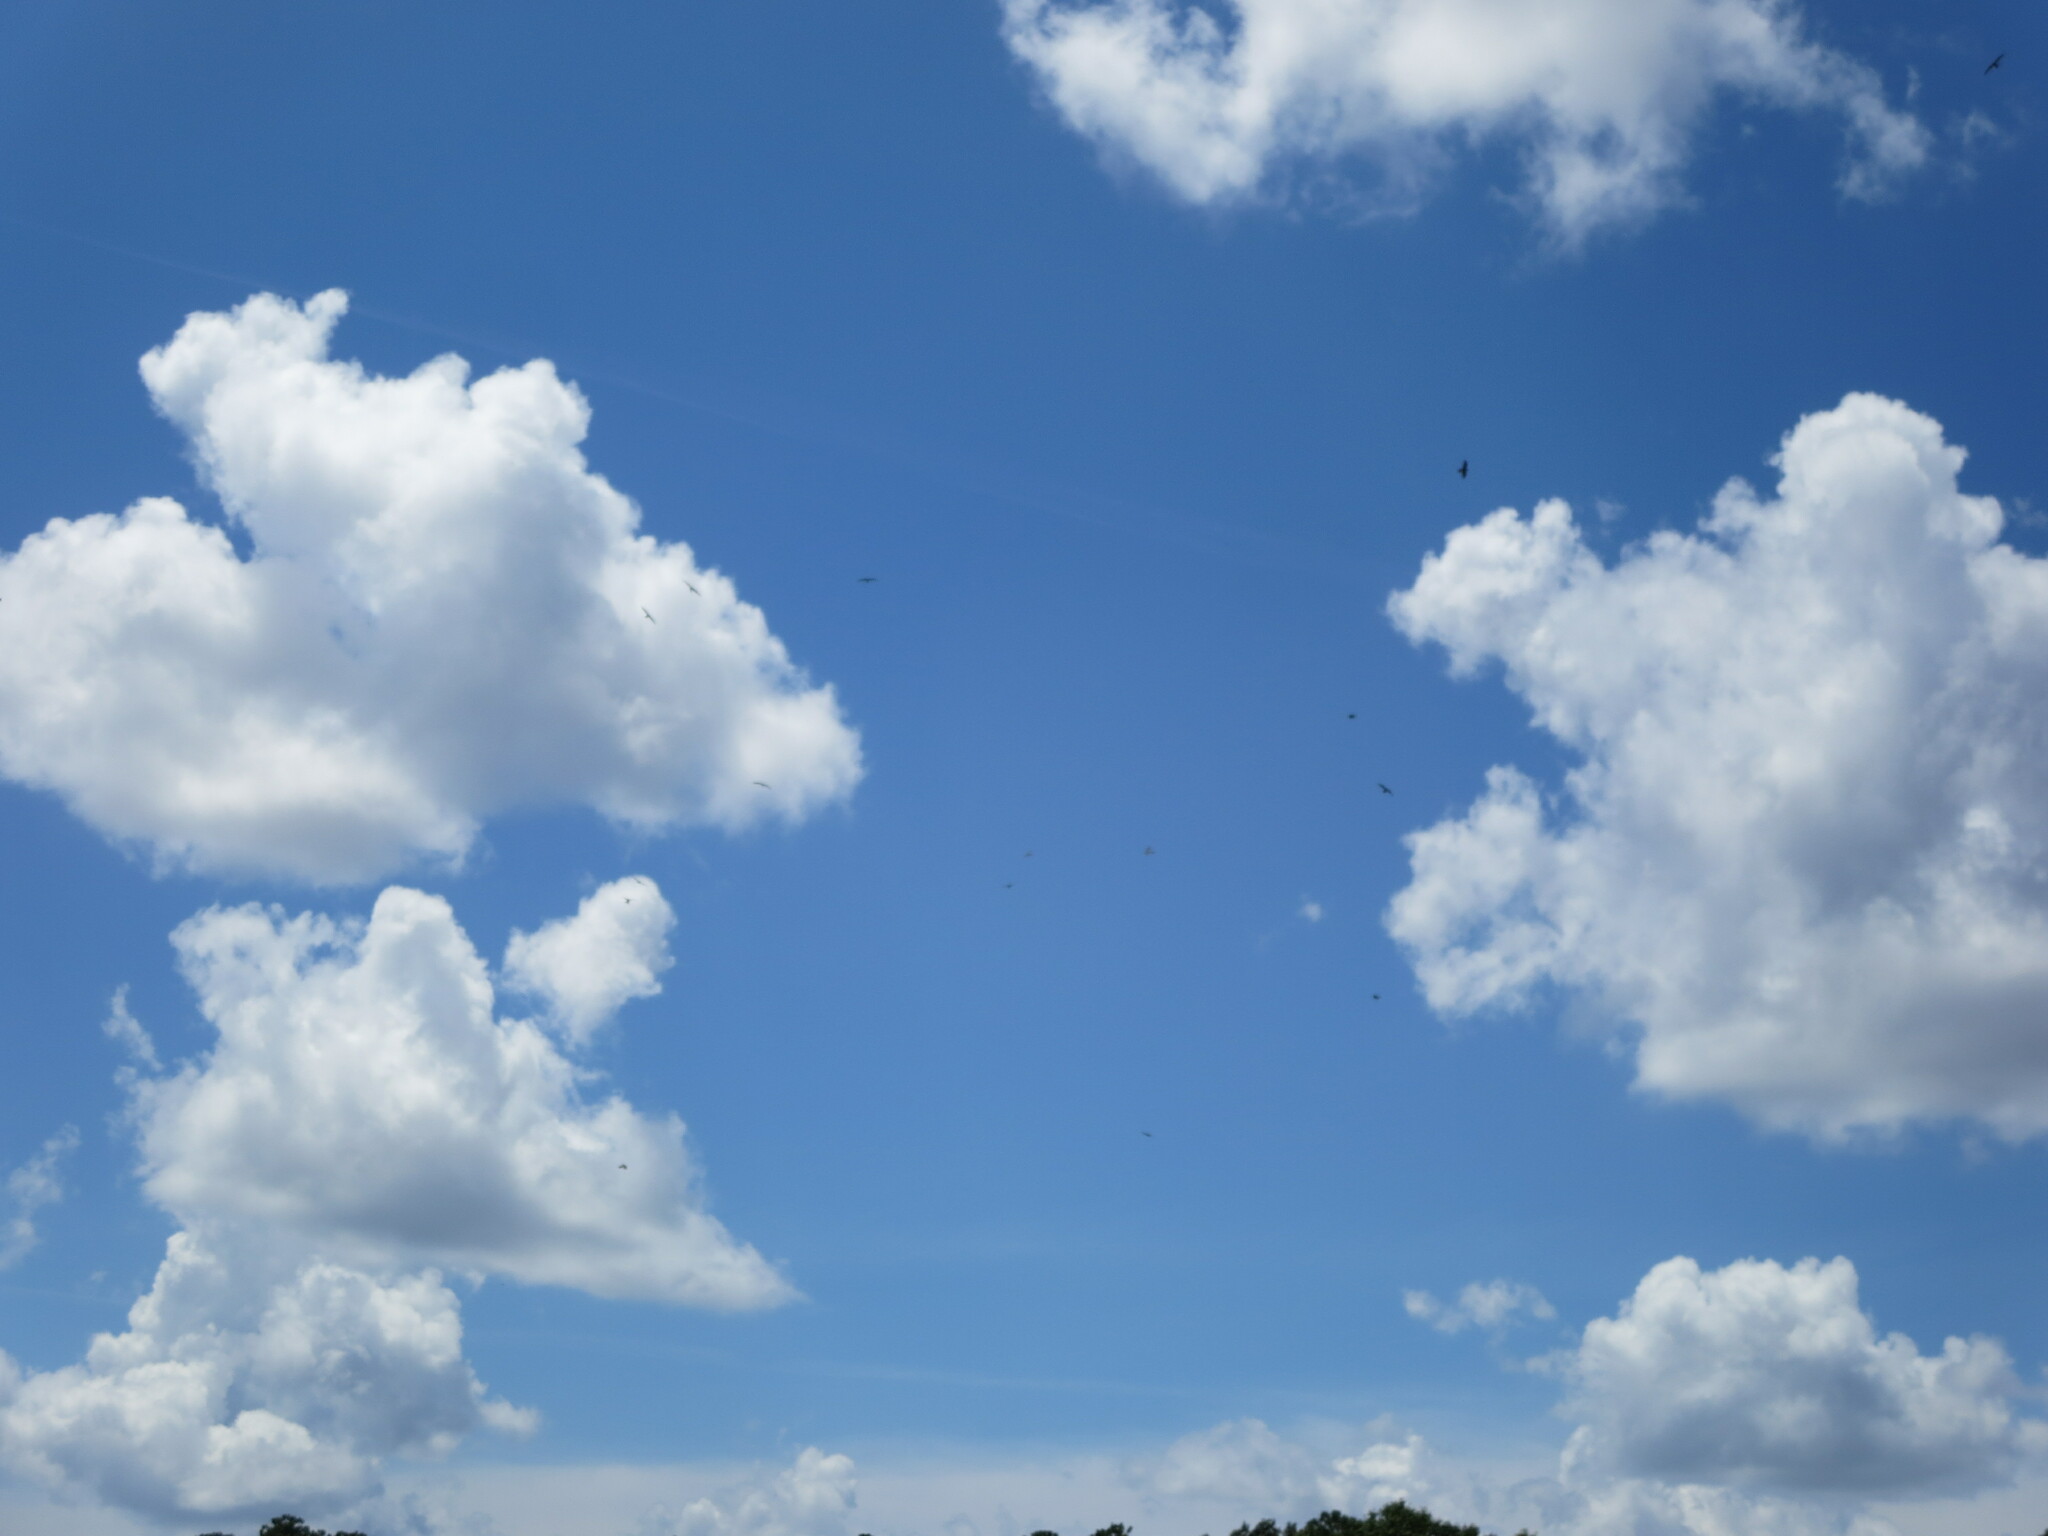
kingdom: Animalia
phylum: Chordata
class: Aves
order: Accipitriformes
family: Accipitridae
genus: Ictinia
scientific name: Ictinia mississippiensis
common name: Mississippi kite
